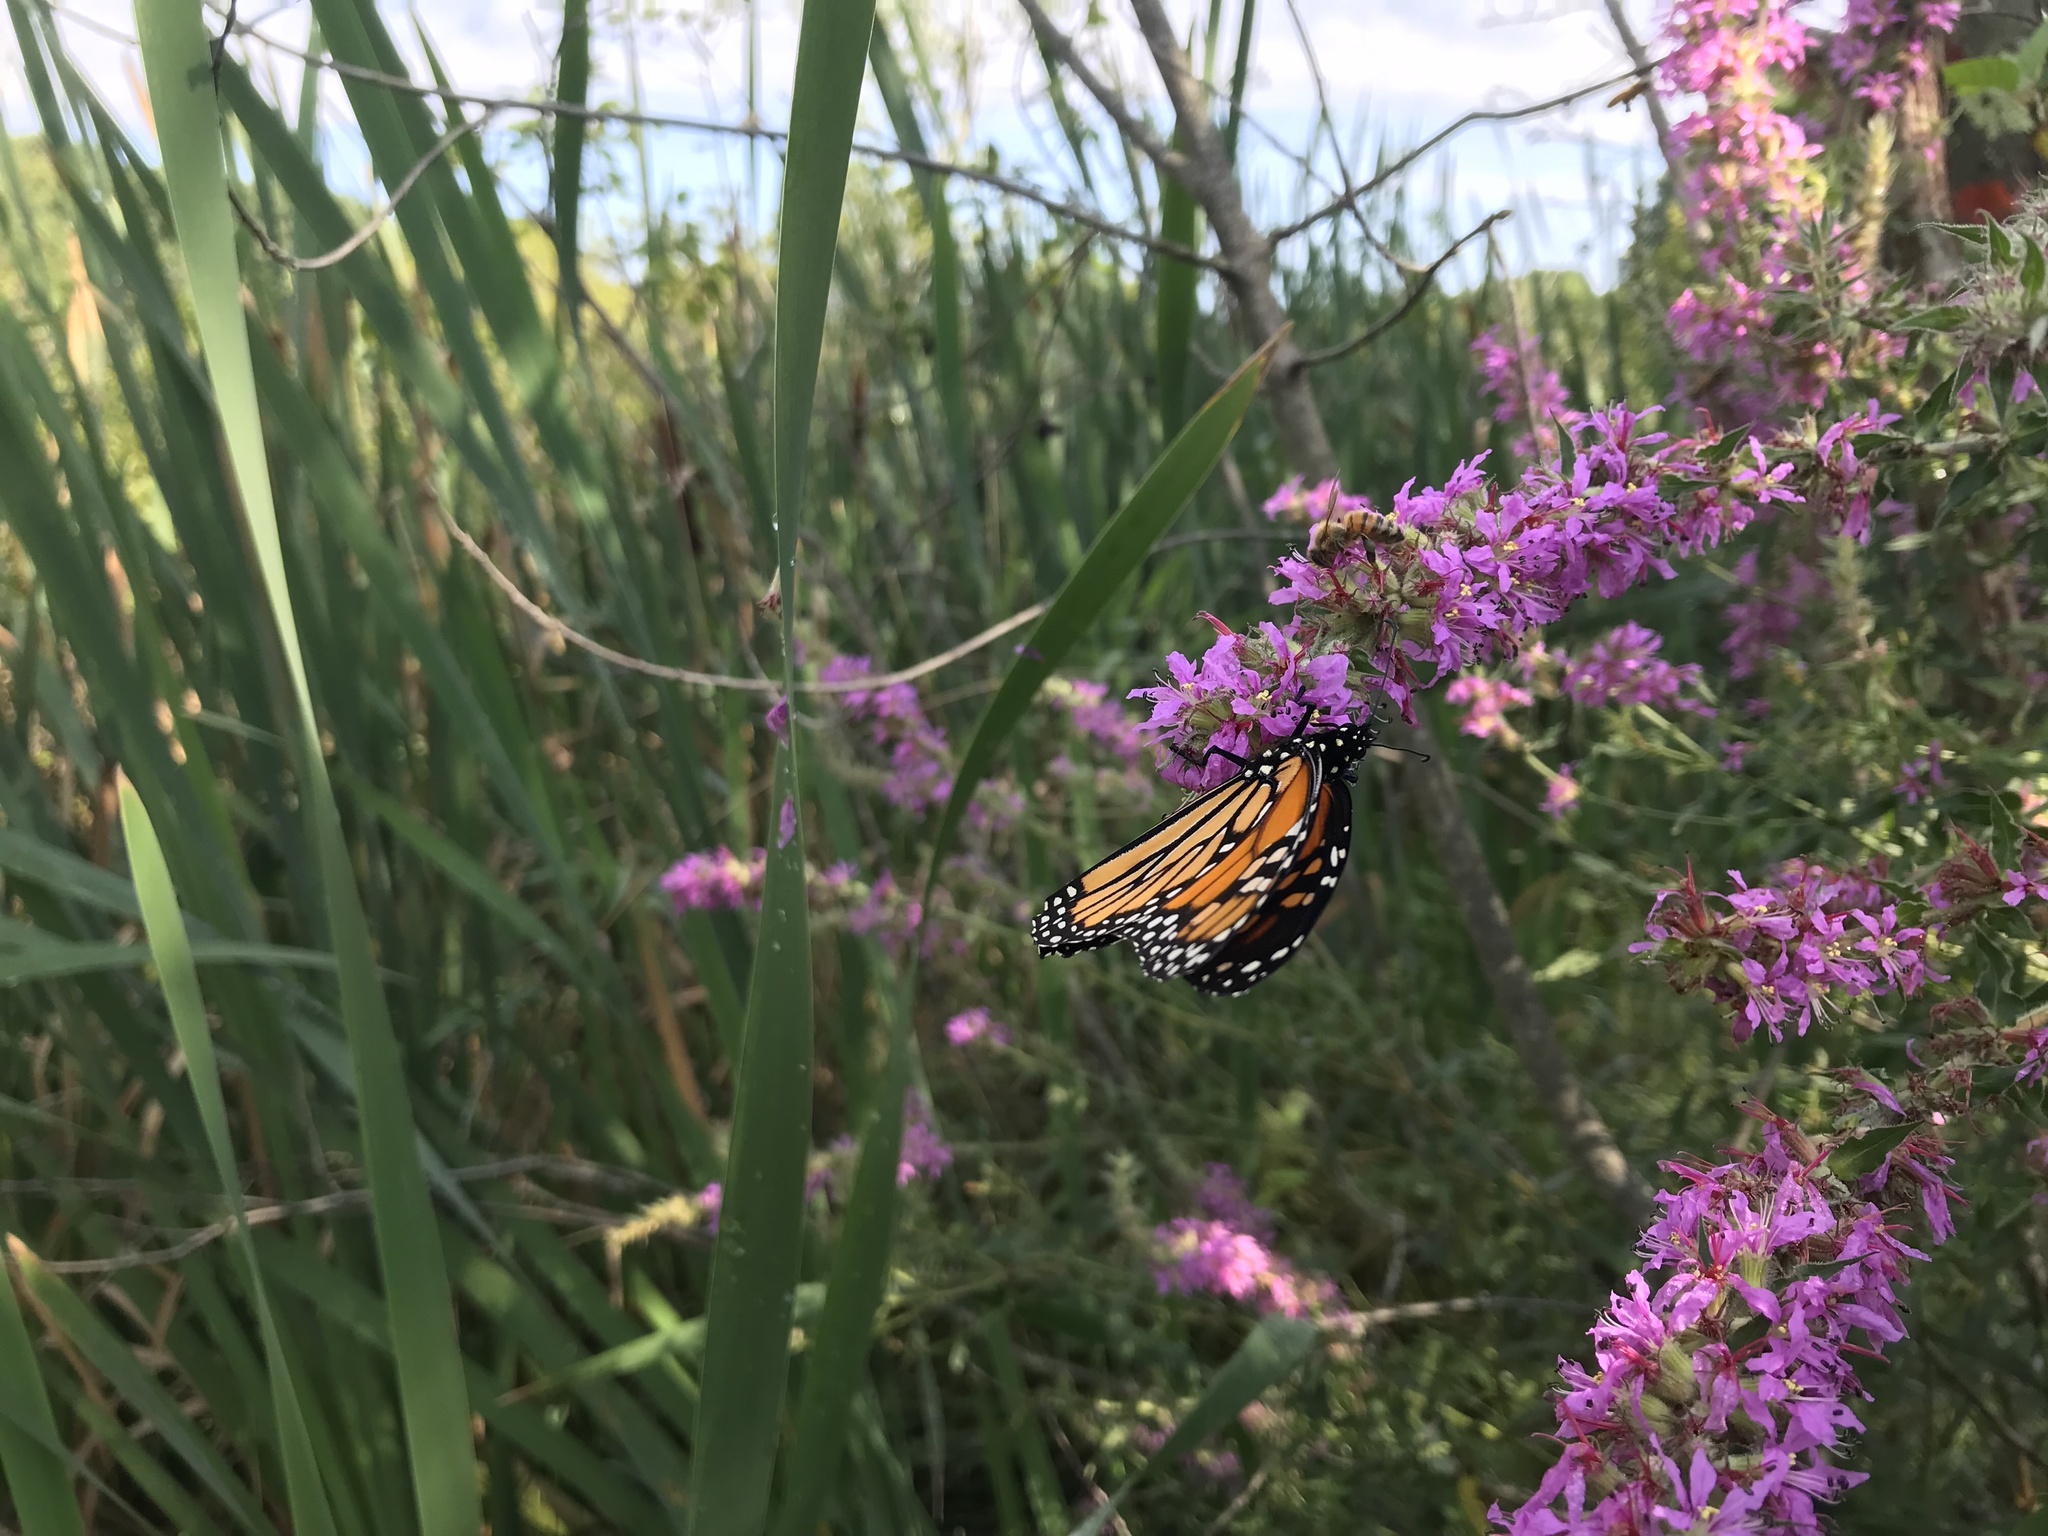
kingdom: Animalia
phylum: Arthropoda
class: Insecta
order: Lepidoptera
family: Nymphalidae
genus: Danaus
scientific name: Danaus plexippus
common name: Monarch
